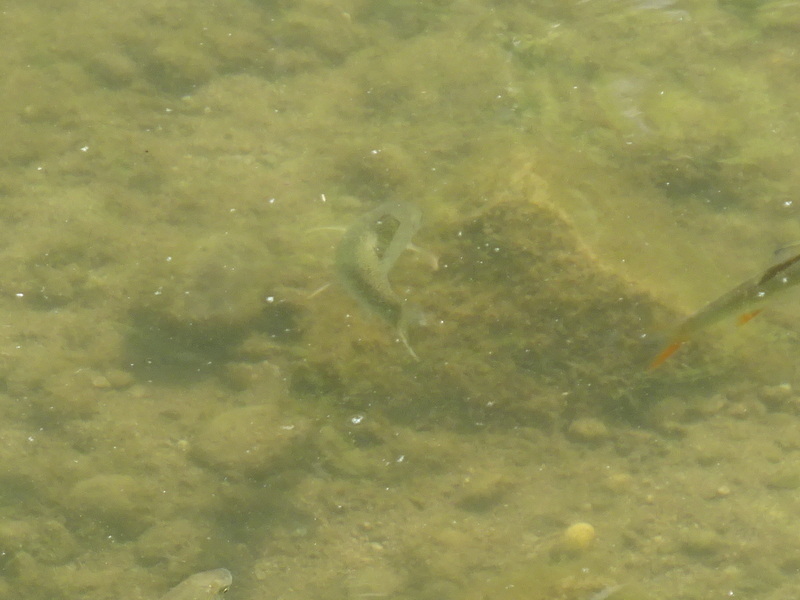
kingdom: Animalia
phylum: Chordata
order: Cypriniformes
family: Cyprinidae
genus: Barbus
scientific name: Barbus barbus
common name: Barbel
